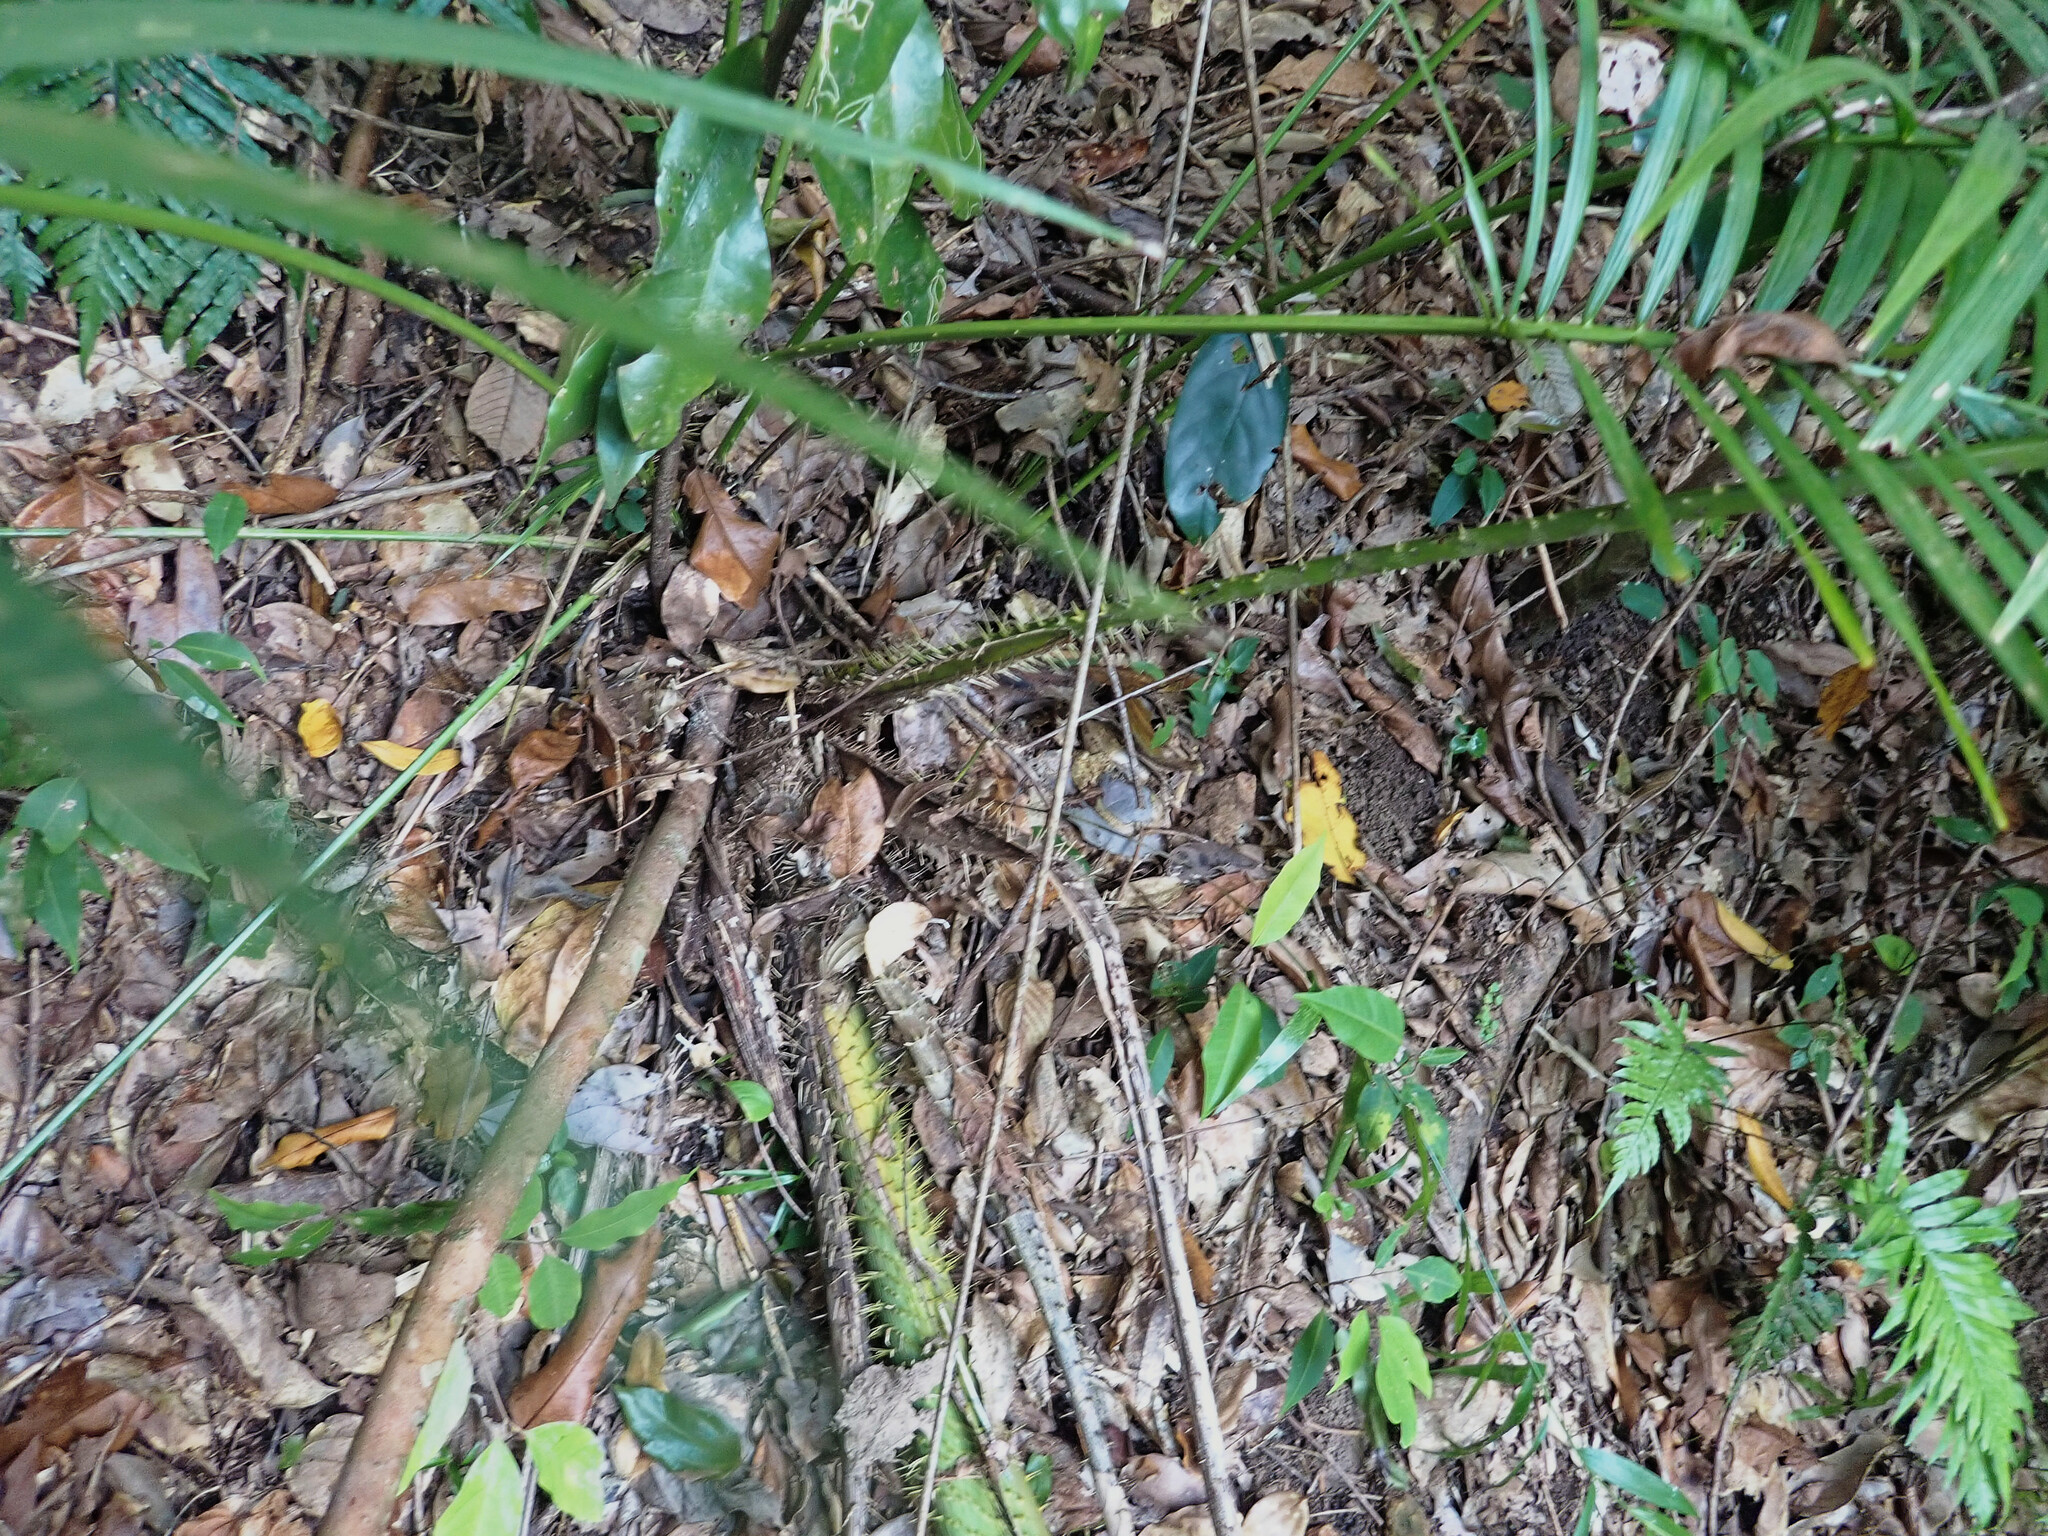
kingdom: Plantae
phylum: Tracheophyta
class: Liliopsida
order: Arecales
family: Arecaceae
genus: Calamus
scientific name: Calamus moti
